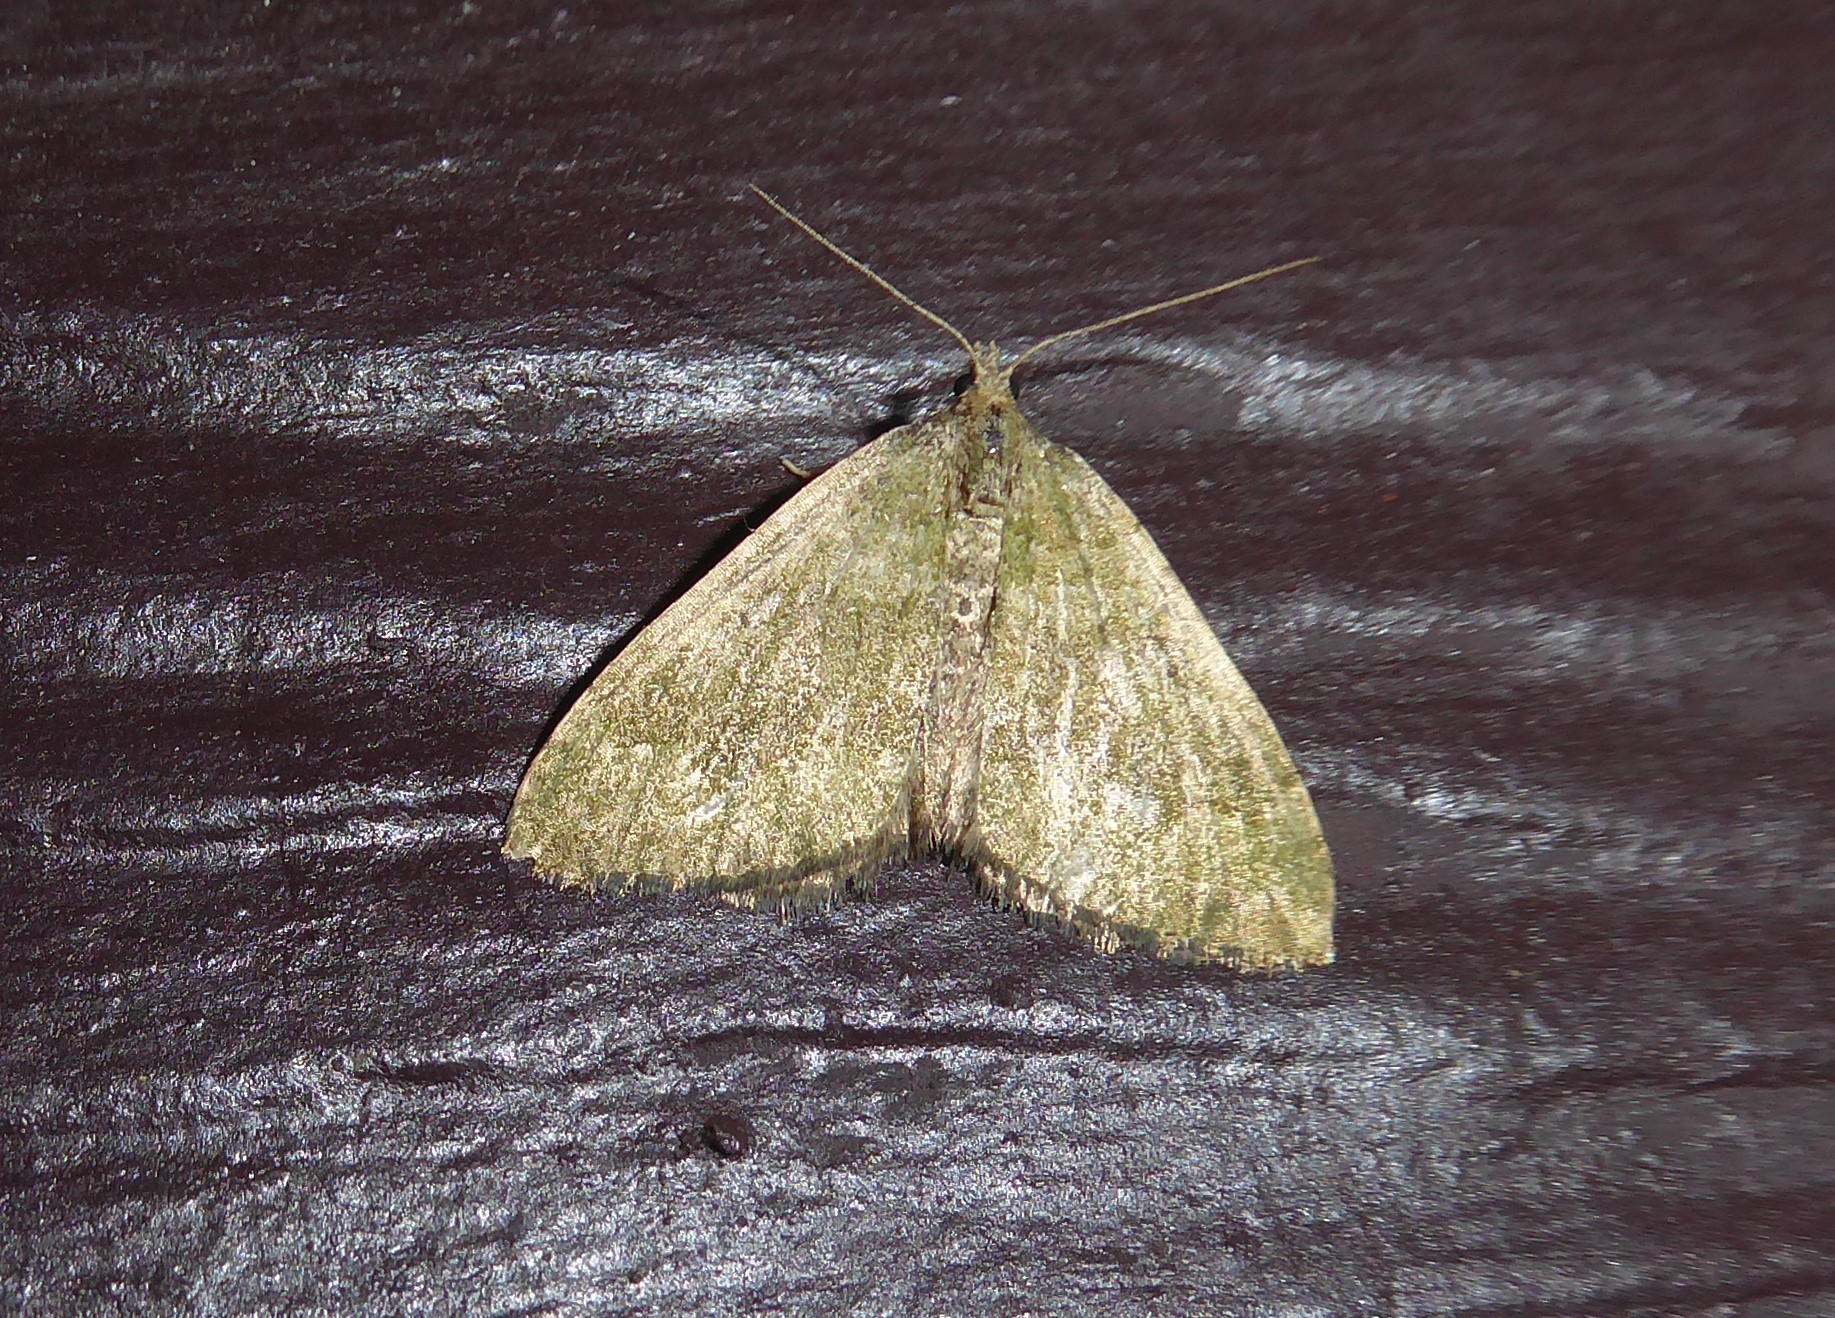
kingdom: Animalia
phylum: Arthropoda
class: Insecta
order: Lepidoptera
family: Geometridae
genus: Epyaxa
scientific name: Epyaxa rosearia
